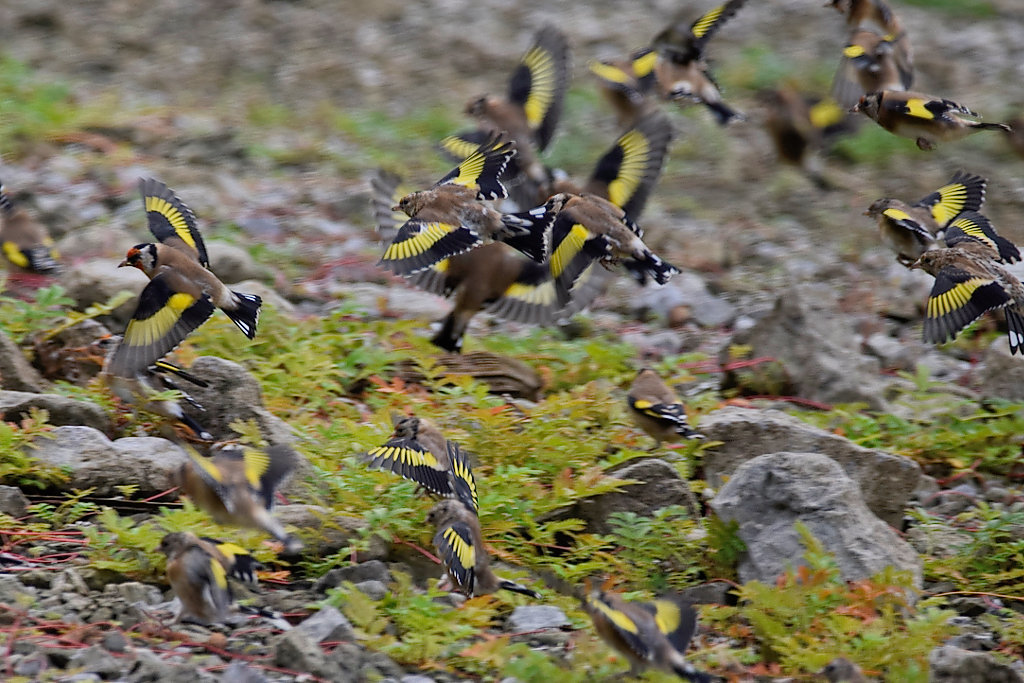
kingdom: Animalia
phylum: Chordata
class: Aves
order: Passeriformes
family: Fringillidae
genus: Carduelis
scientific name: Carduelis carduelis
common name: European goldfinch
